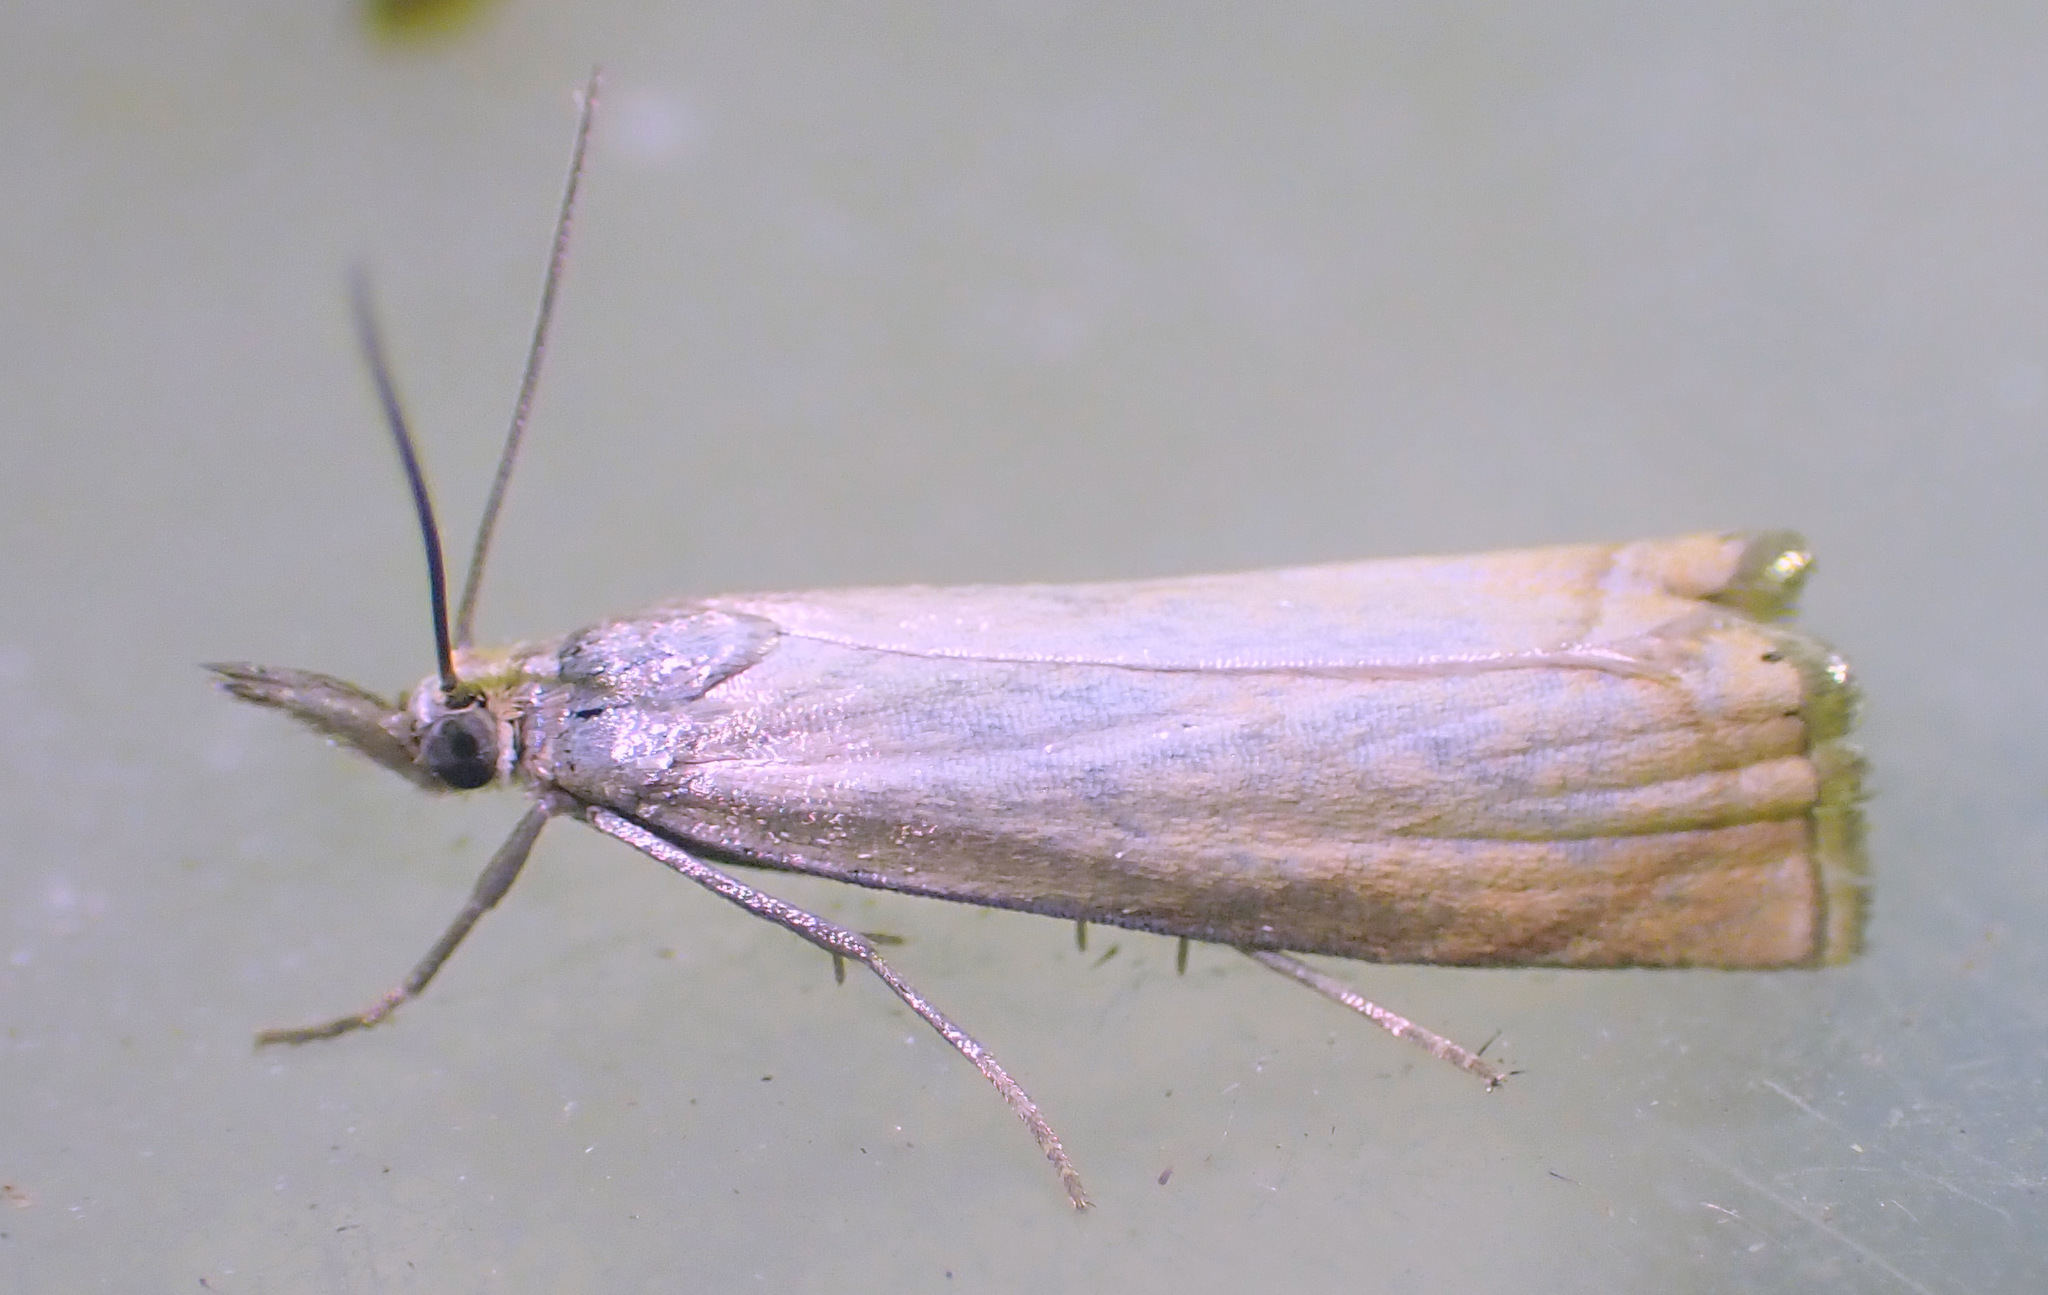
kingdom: Animalia
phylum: Arthropoda
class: Insecta
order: Lepidoptera
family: Crambidae
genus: Chrysoteuchia
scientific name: Chrysoteuchia culmella
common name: Garden grass-veneer
